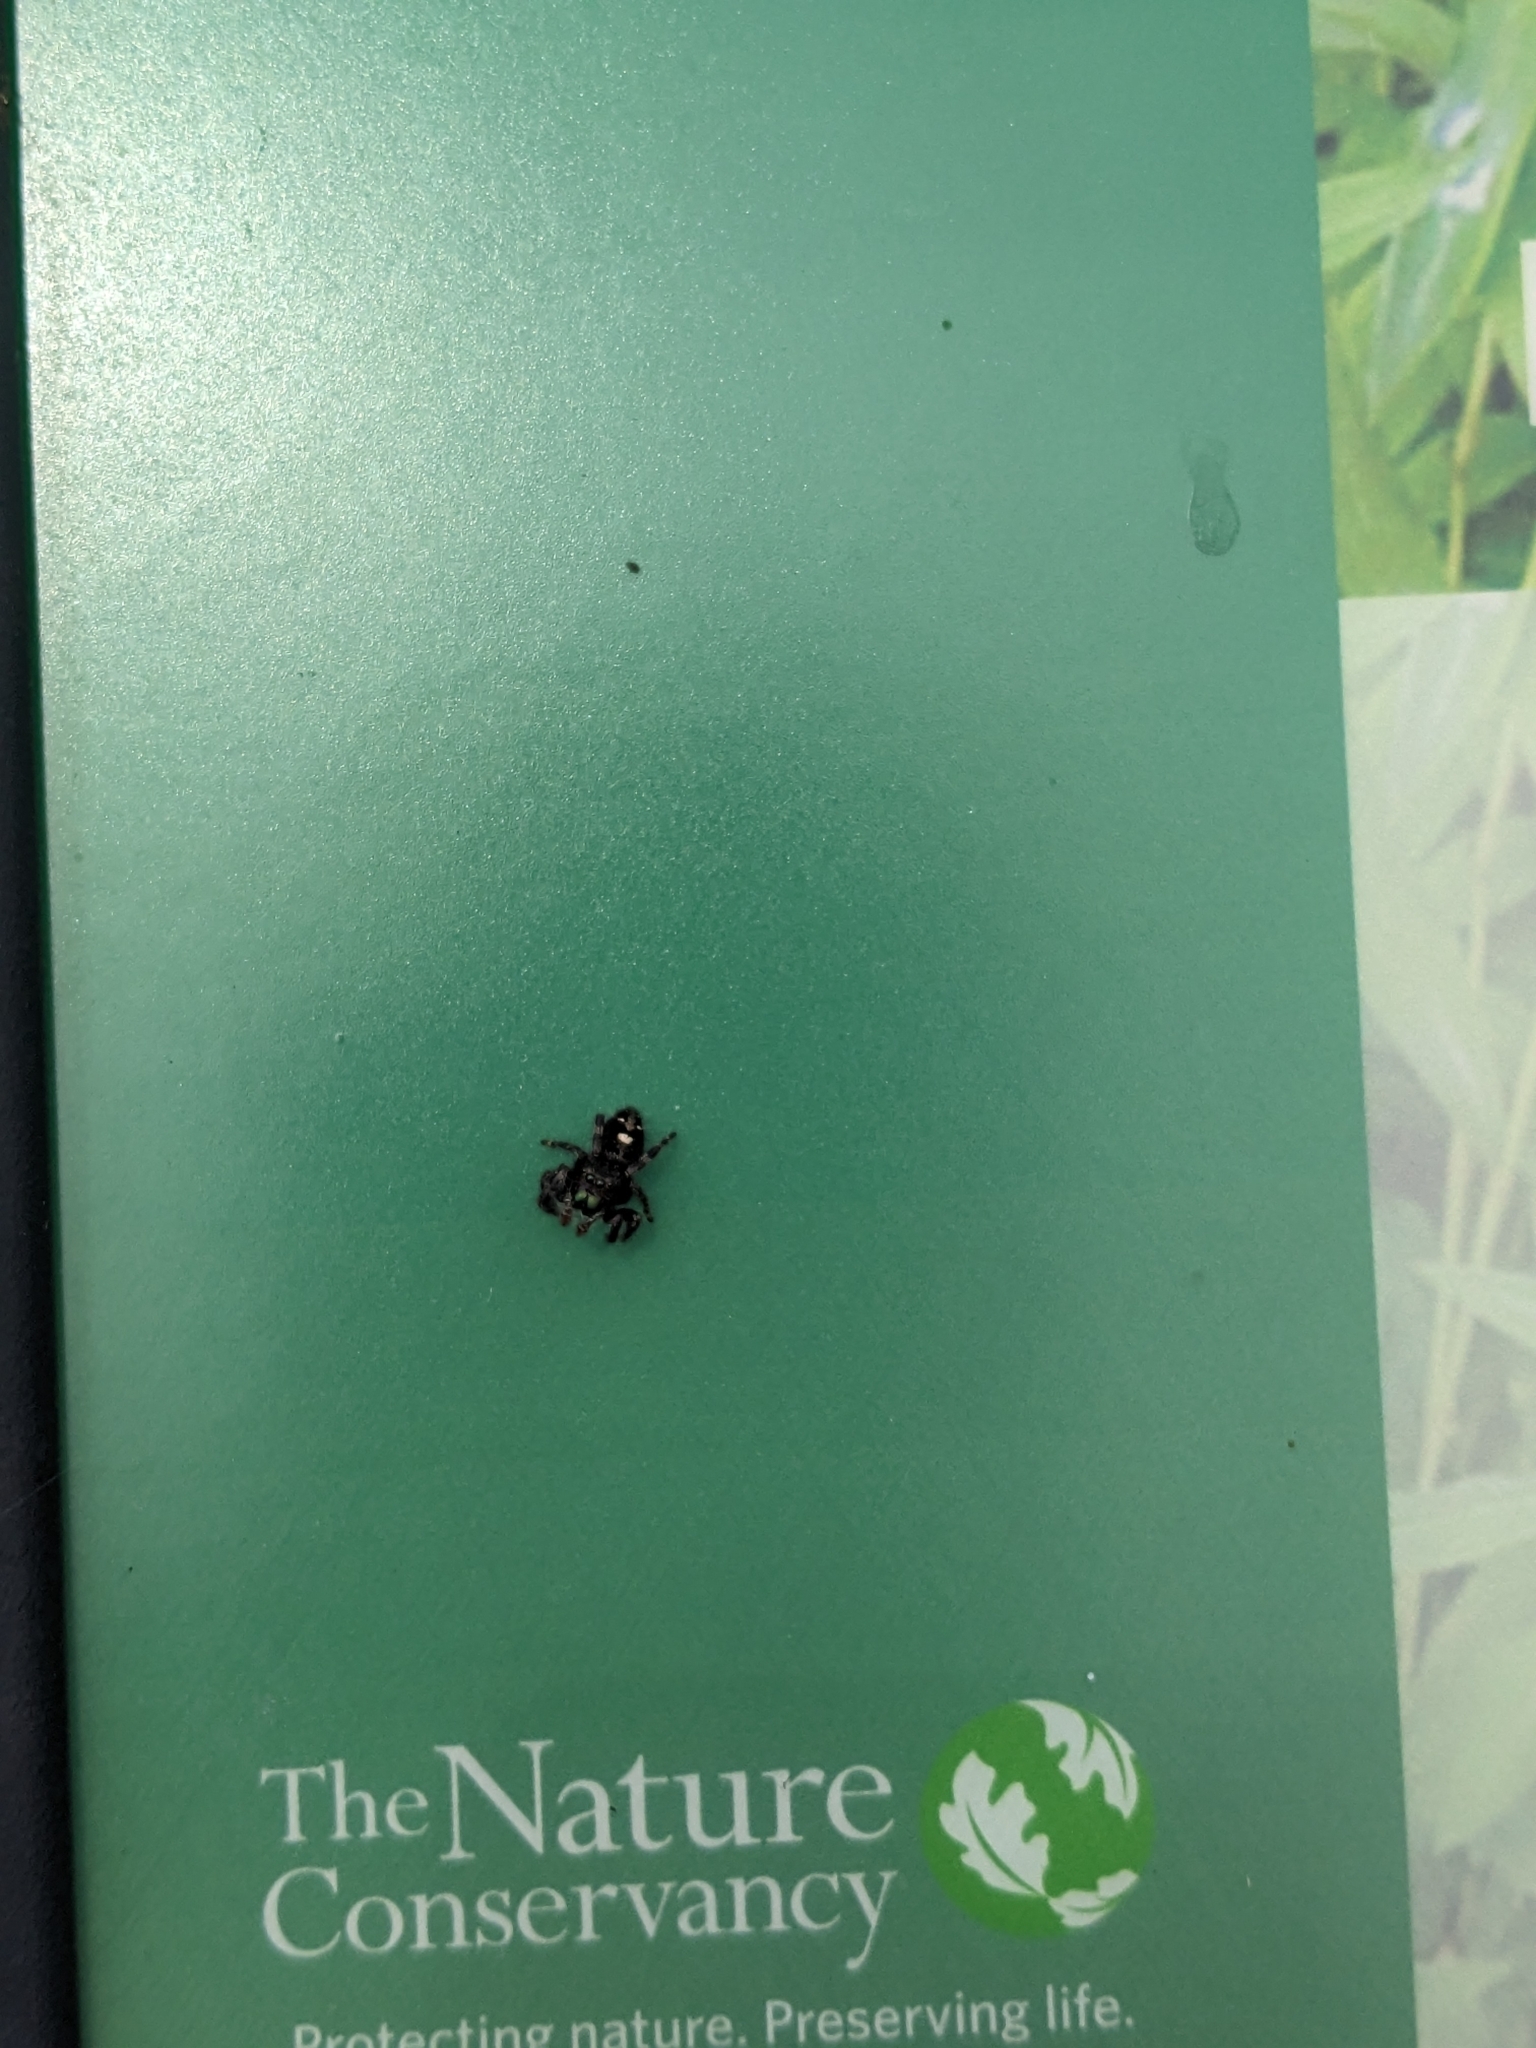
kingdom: Animalia
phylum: Arthropoda
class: Arachnida
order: Araneae
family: Salticidae
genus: Phidippus
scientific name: Phidippus audax
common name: Bold jumper
